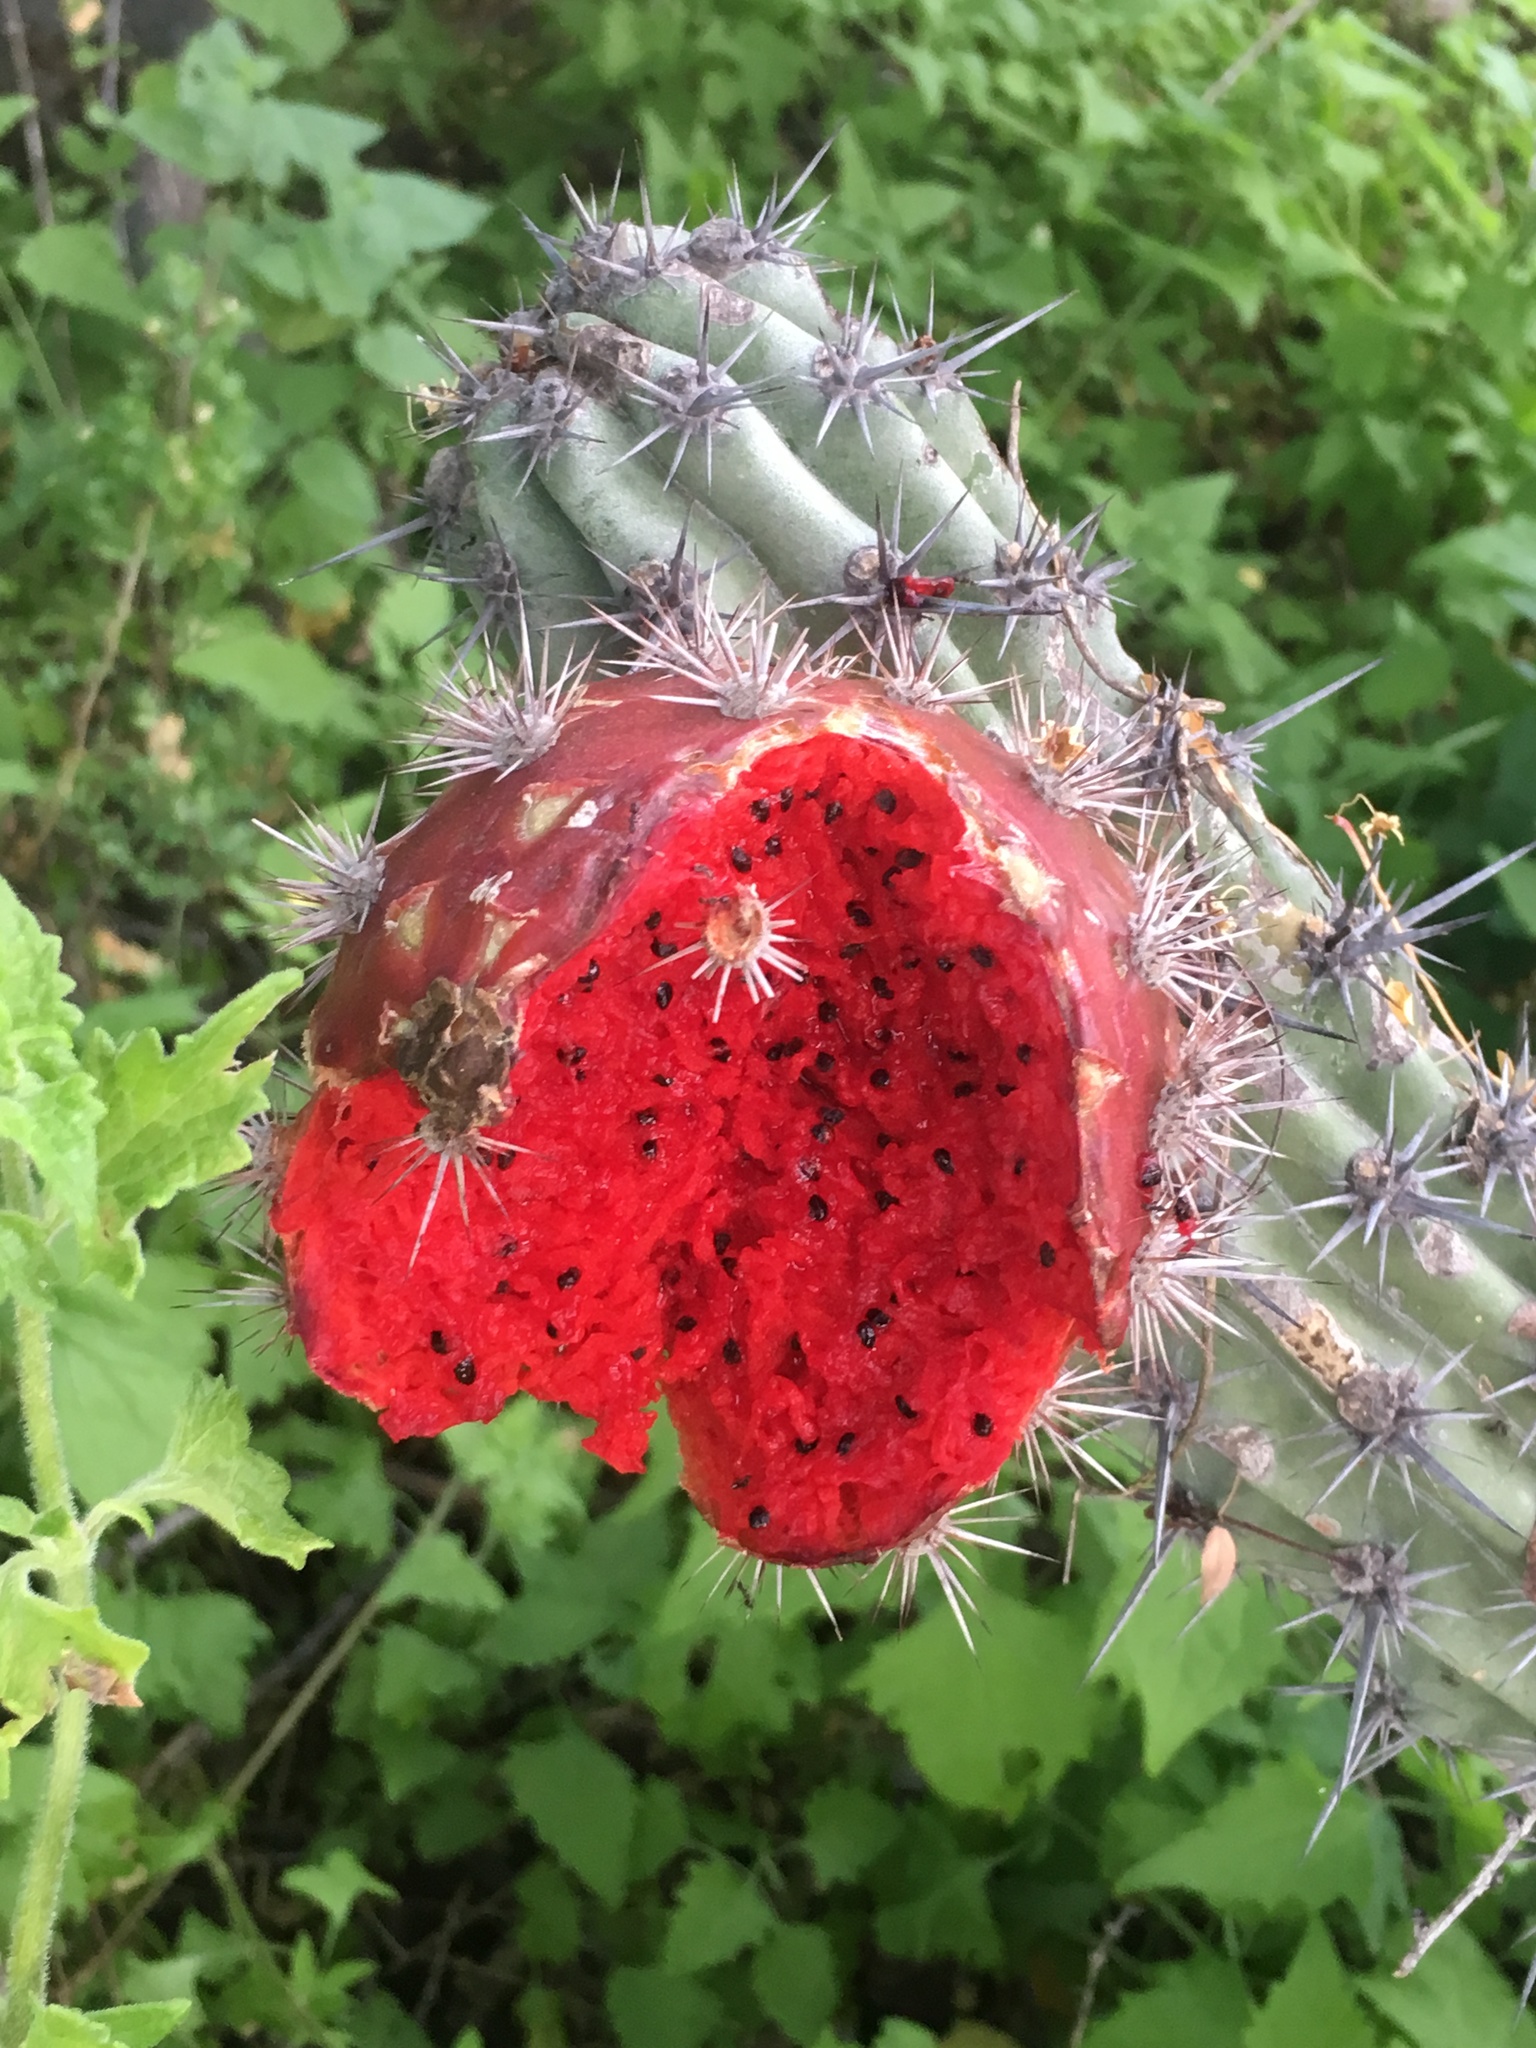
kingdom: Plantae
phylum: Tracheophyta
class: Magnoliopsida
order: Caryophyllales
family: Cactaceae
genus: Stenocereus
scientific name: Stenocereus gummosus
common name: Dagger cactus
